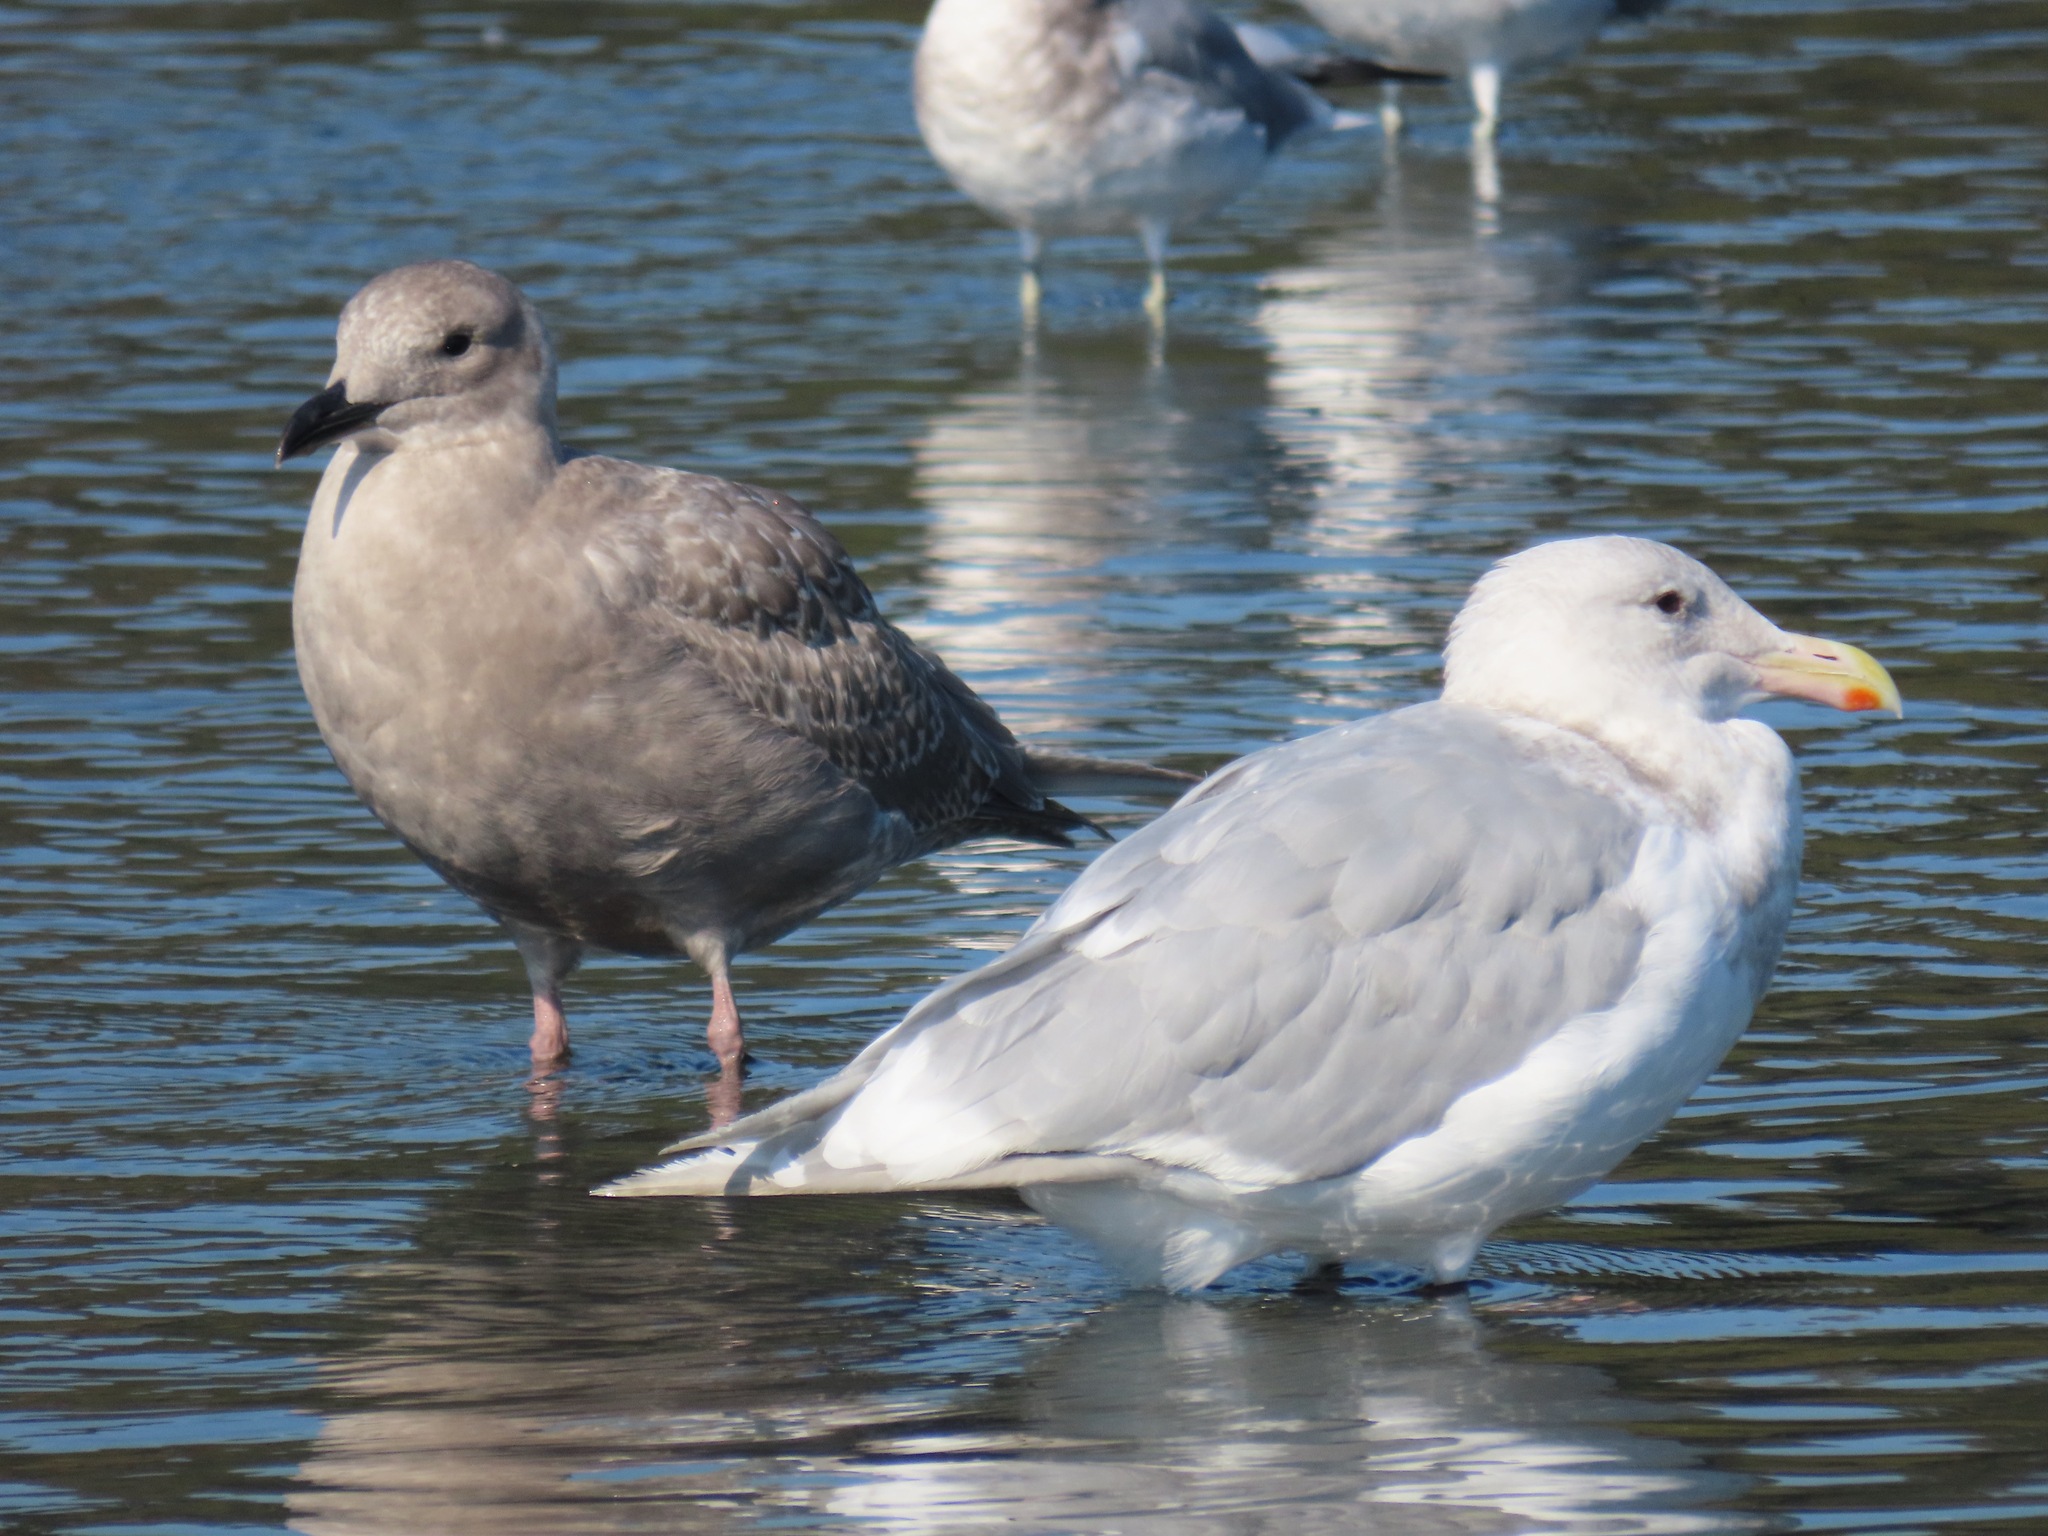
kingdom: Animalia
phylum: Chordata
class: Aves
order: Charadriiformes
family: Laridae
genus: Larus
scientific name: Larus glaucescens
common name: Glaucous-winged gull
